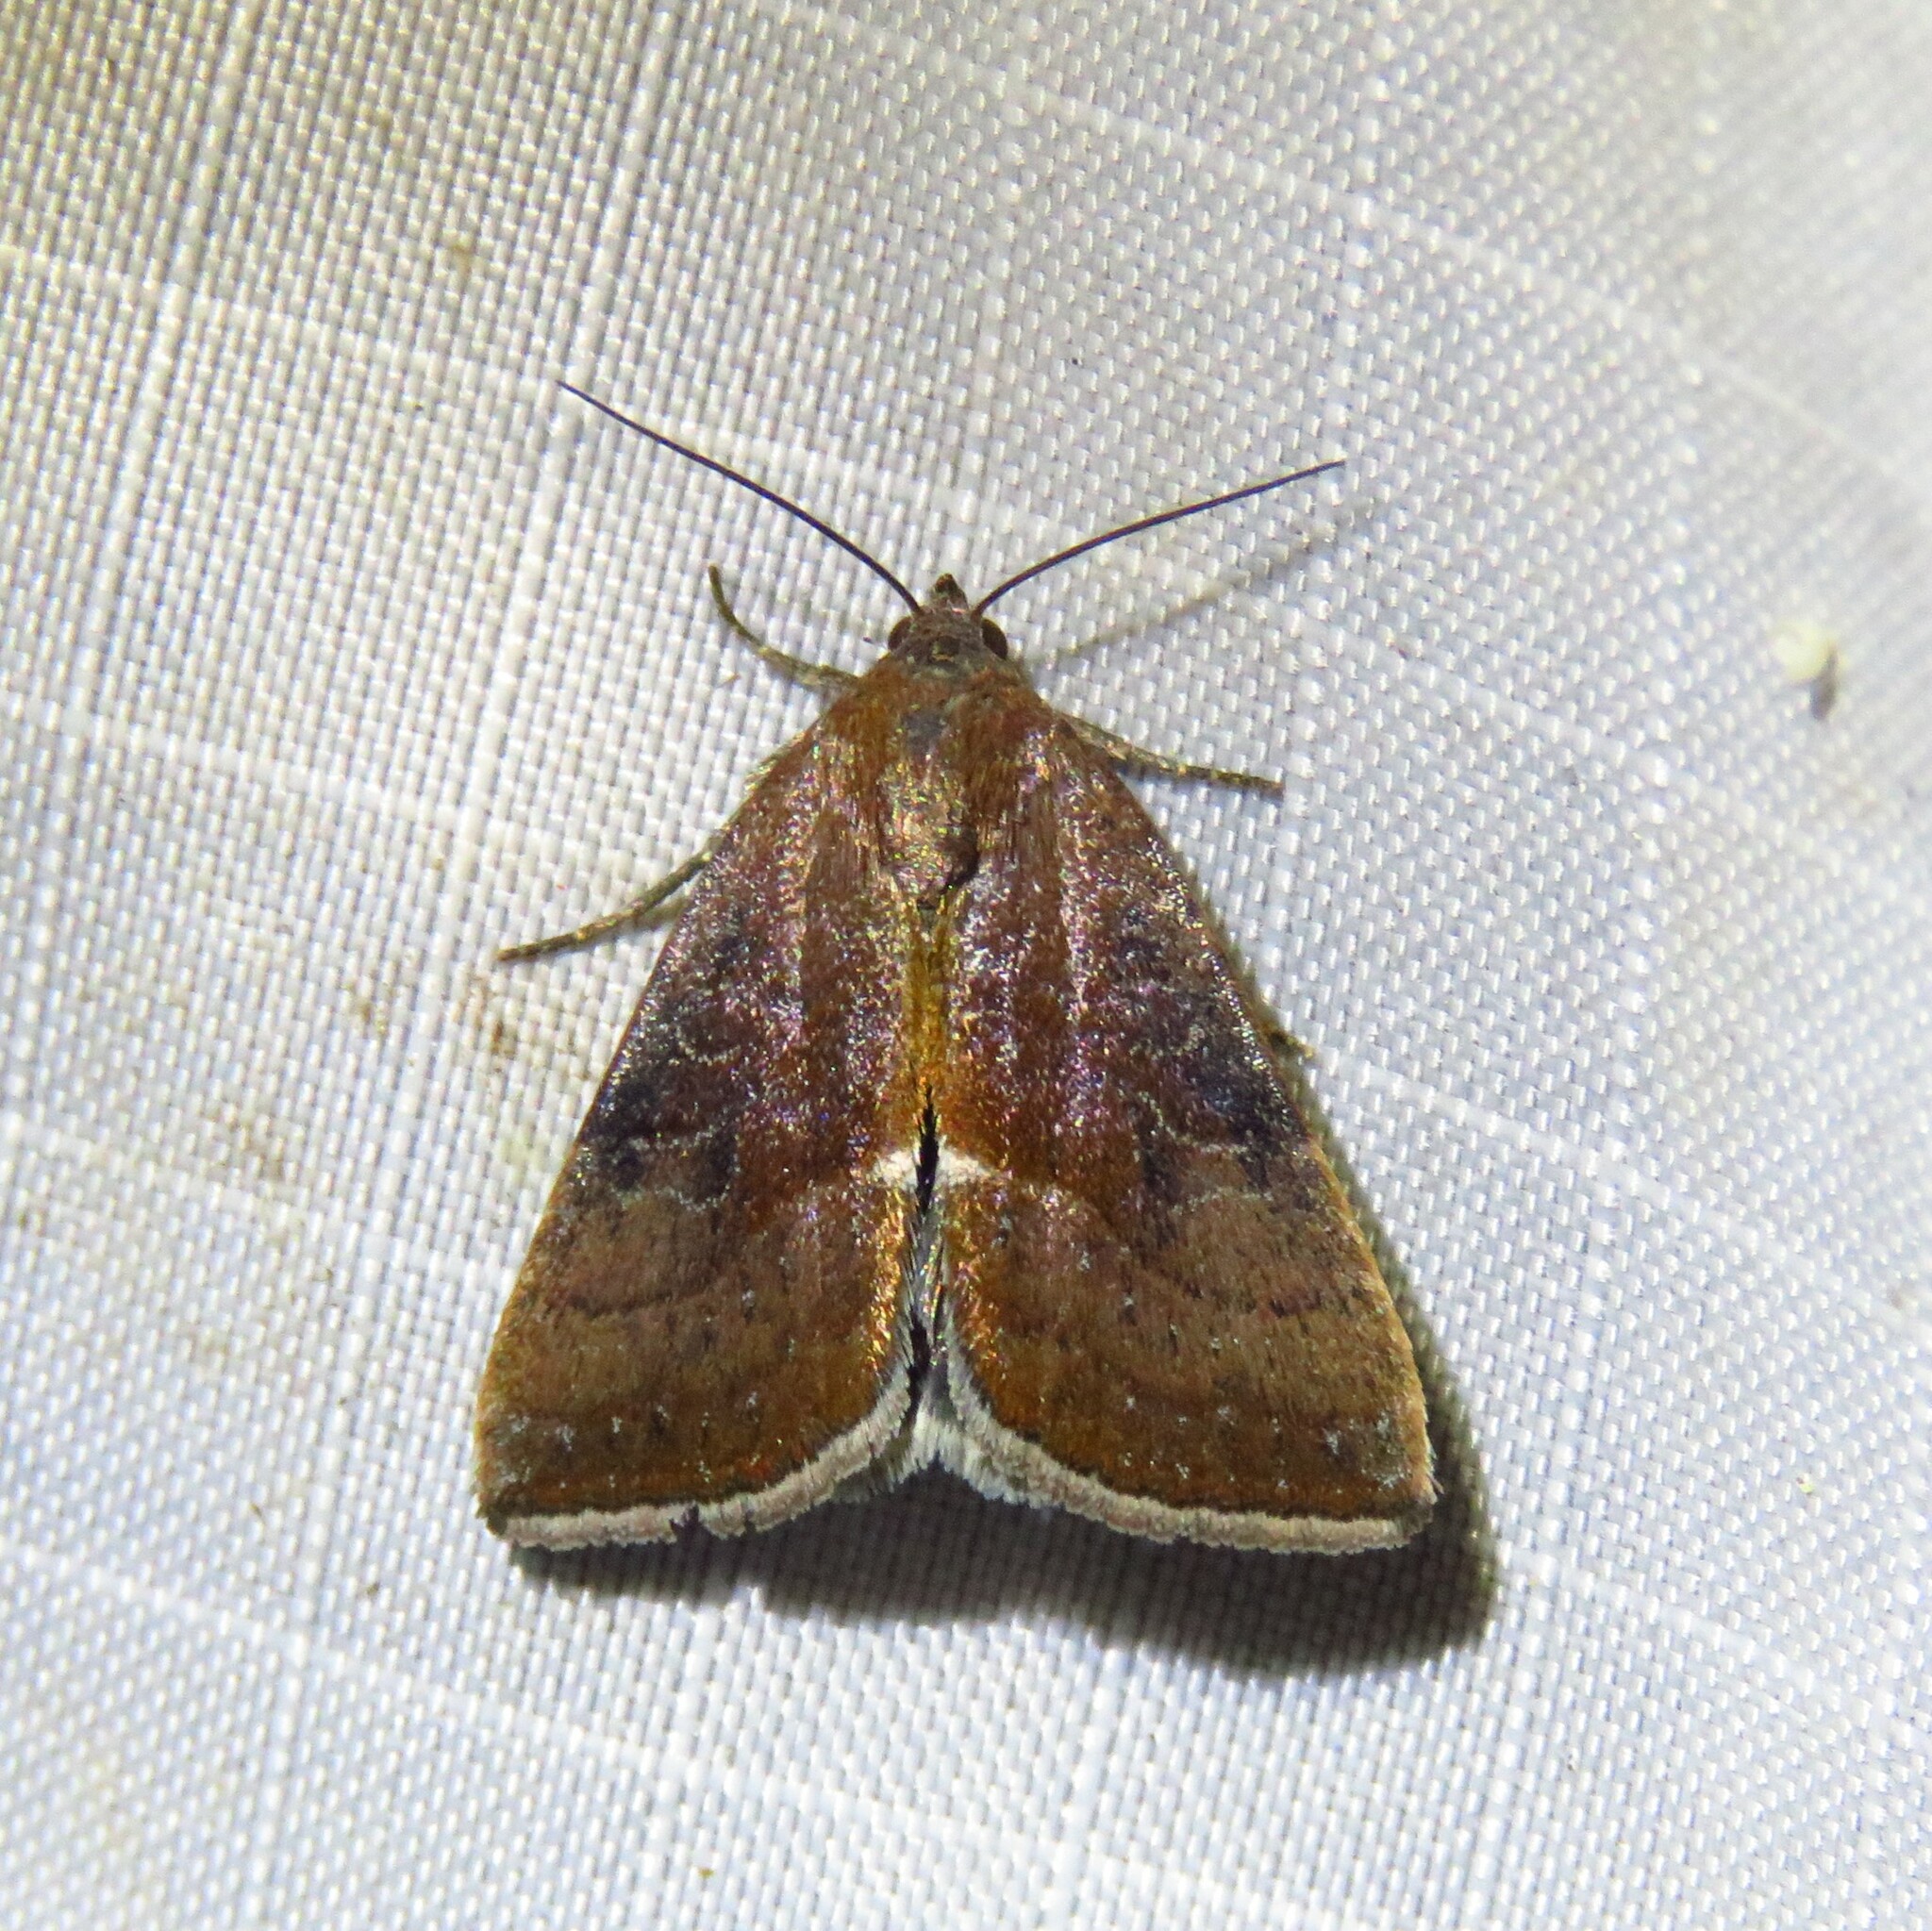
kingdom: Animalia
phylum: Arthropoda
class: Insecta
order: Lepidoptera
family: Noctuidae
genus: Galgula
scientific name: Galgula partita
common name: Wedgeling
